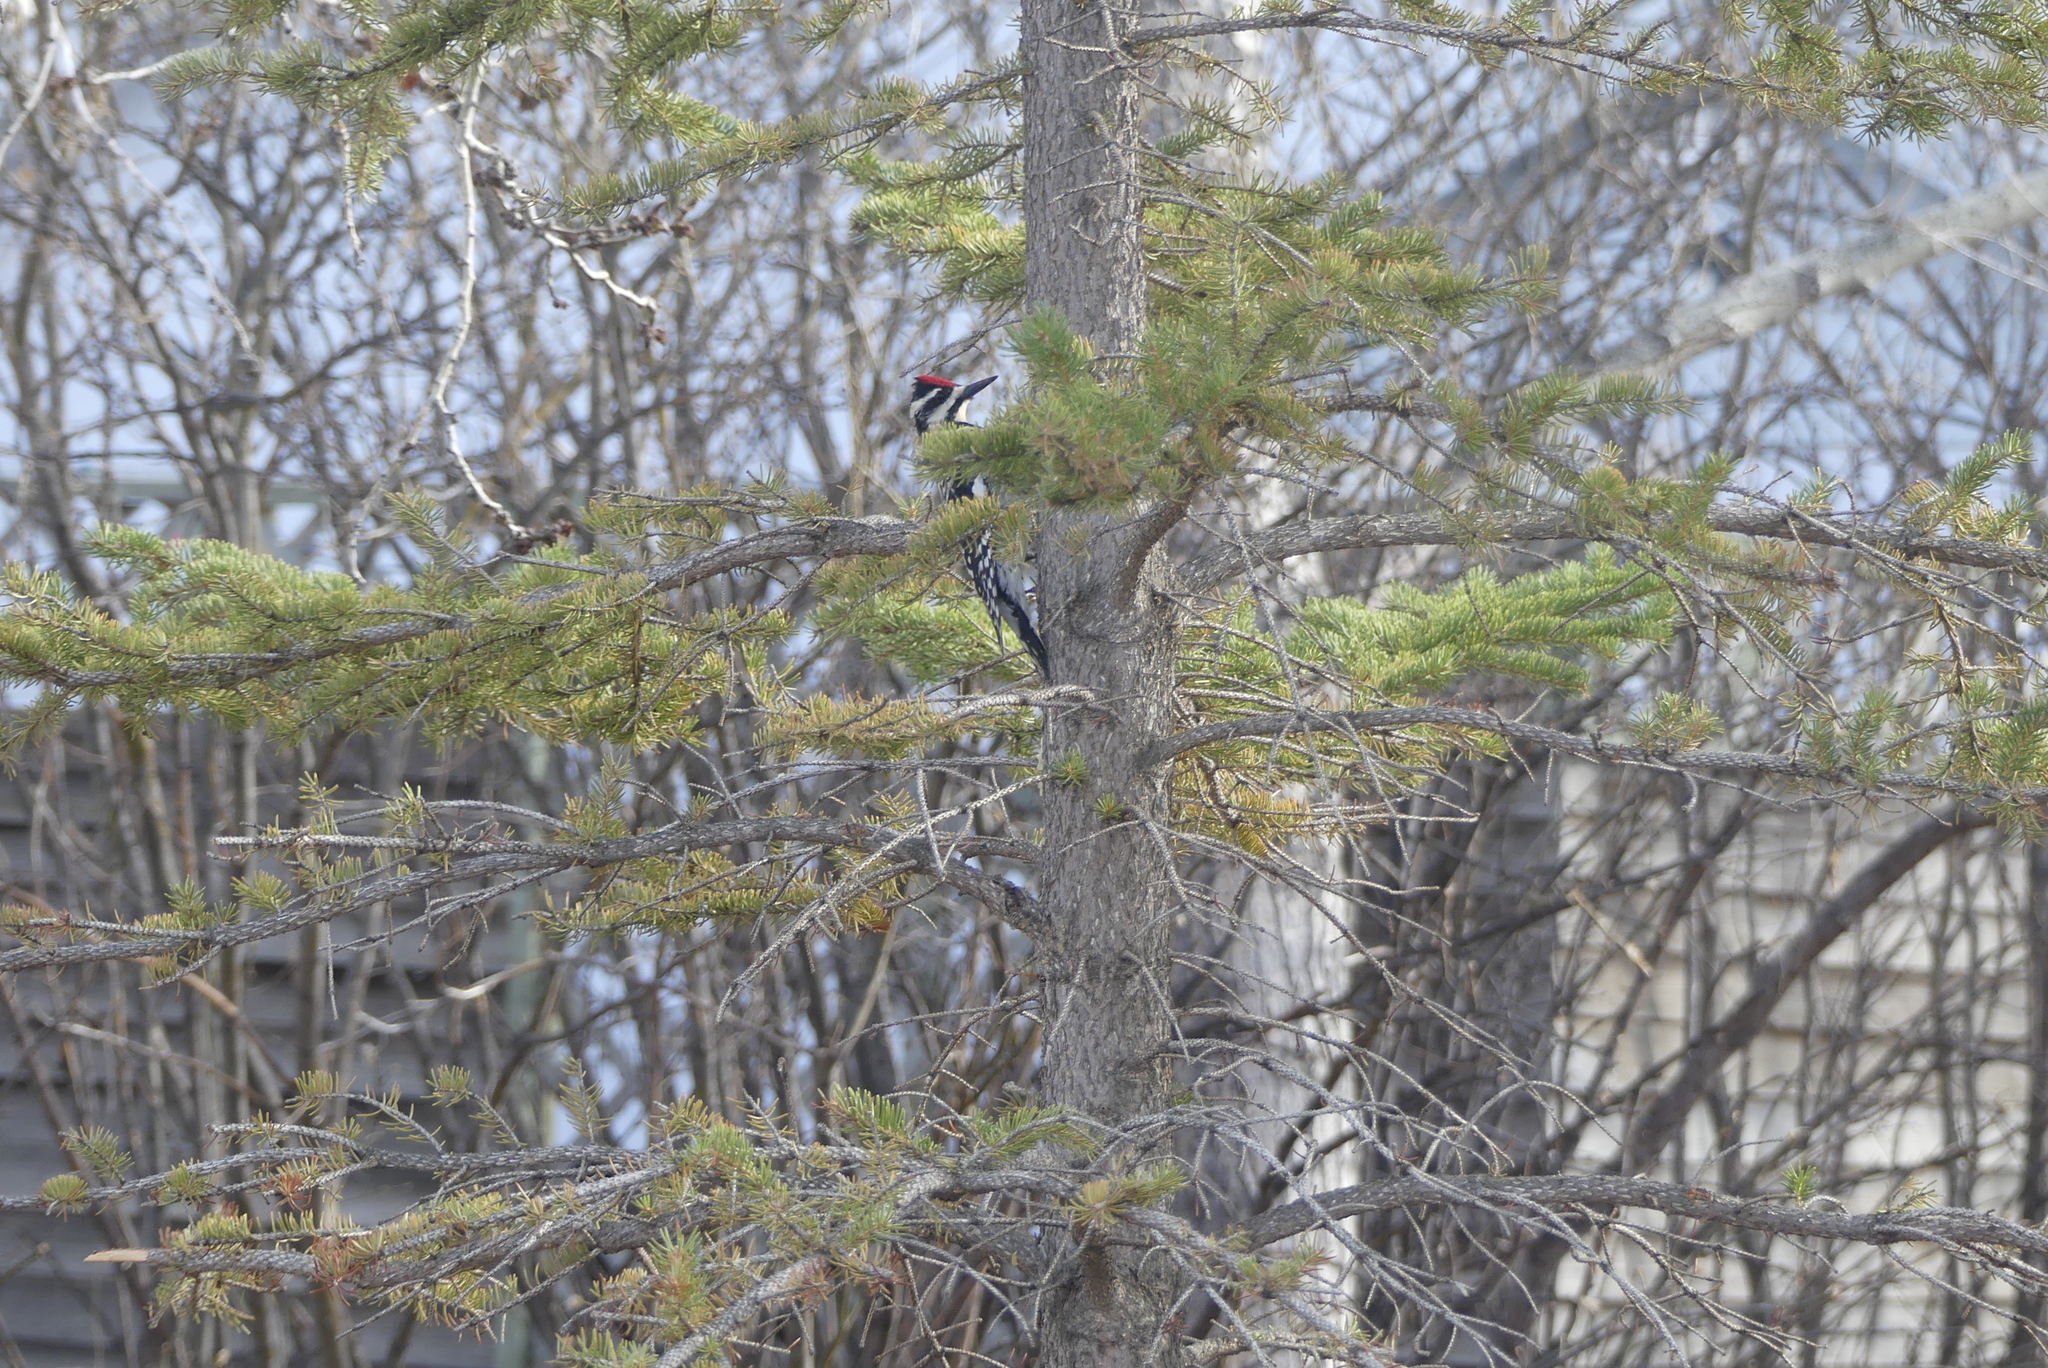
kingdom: Animalia
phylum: Chordata
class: Aves
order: Piciformes
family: Picidae
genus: Sphyrapicus
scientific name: Sphyrapicus varius
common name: Yellow-bellied sapsucker
